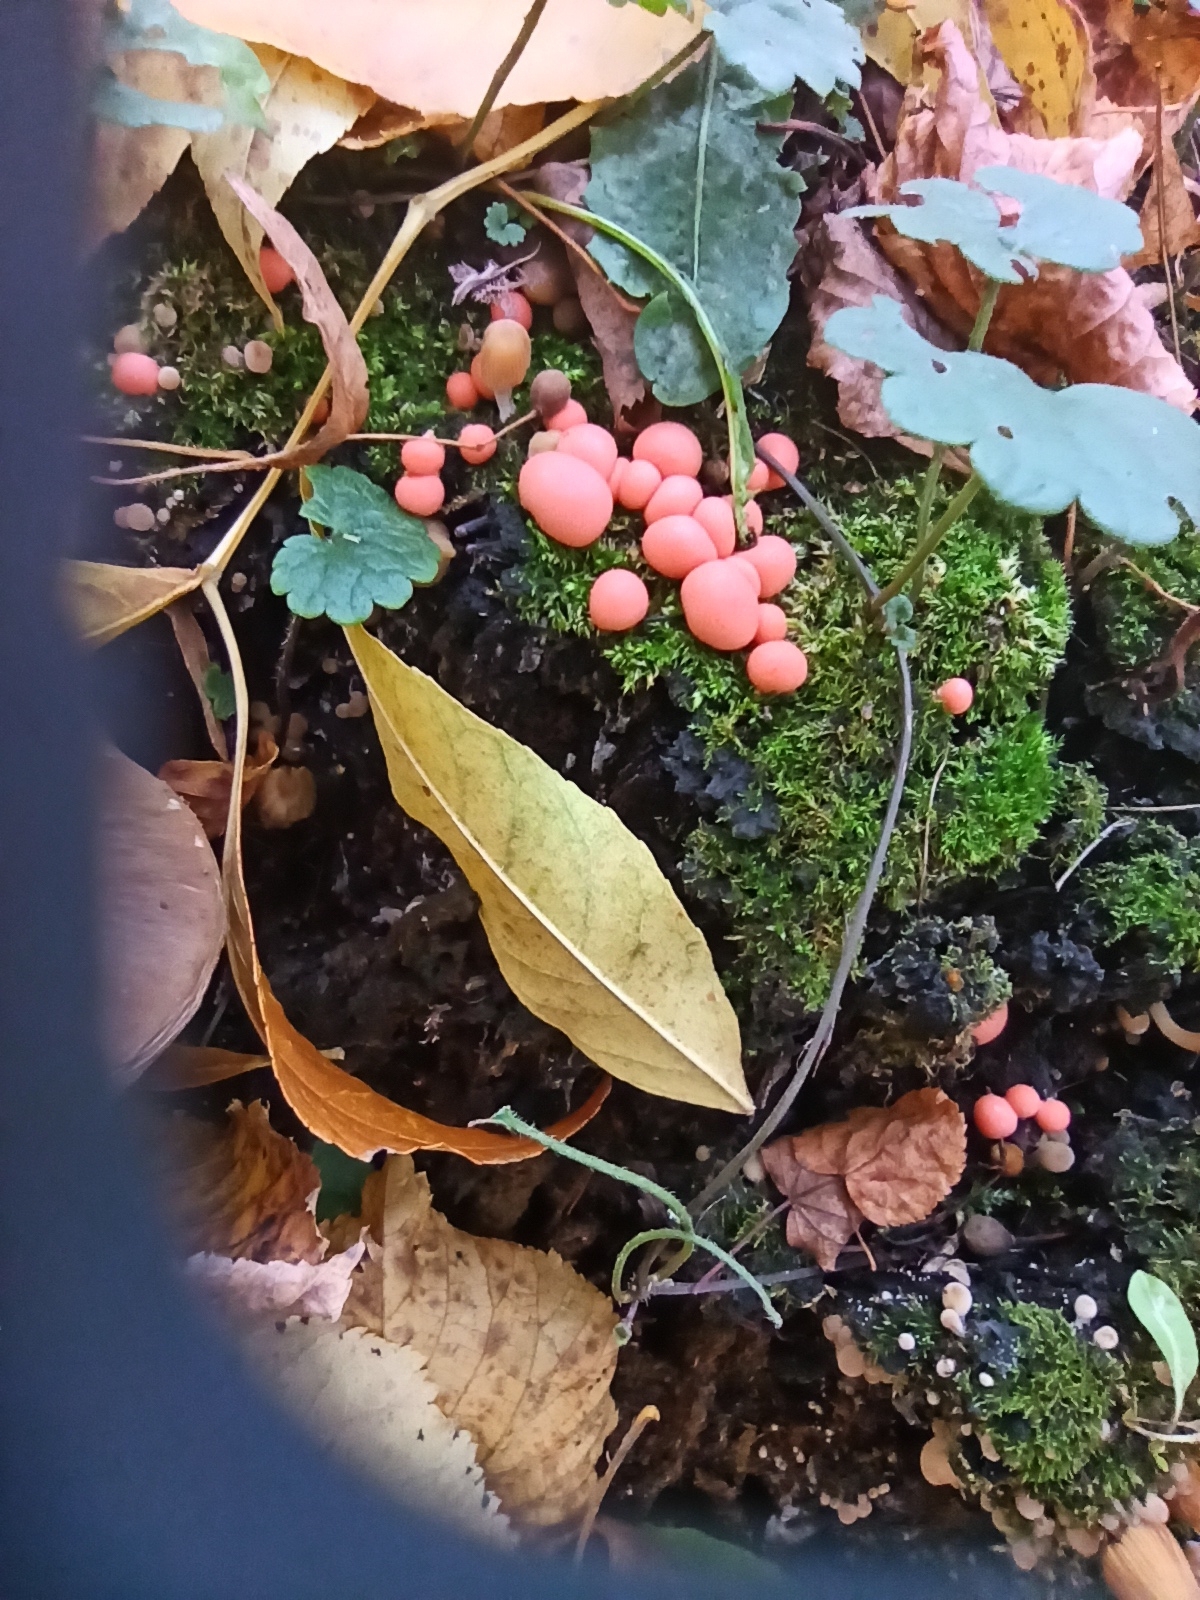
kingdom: Protozoa
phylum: Mycetozoa
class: Myxomycetes
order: Cribrariales
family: Tubiferaceae
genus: Lycogala
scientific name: Lycogala epidendrum
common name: Wolf's milk
